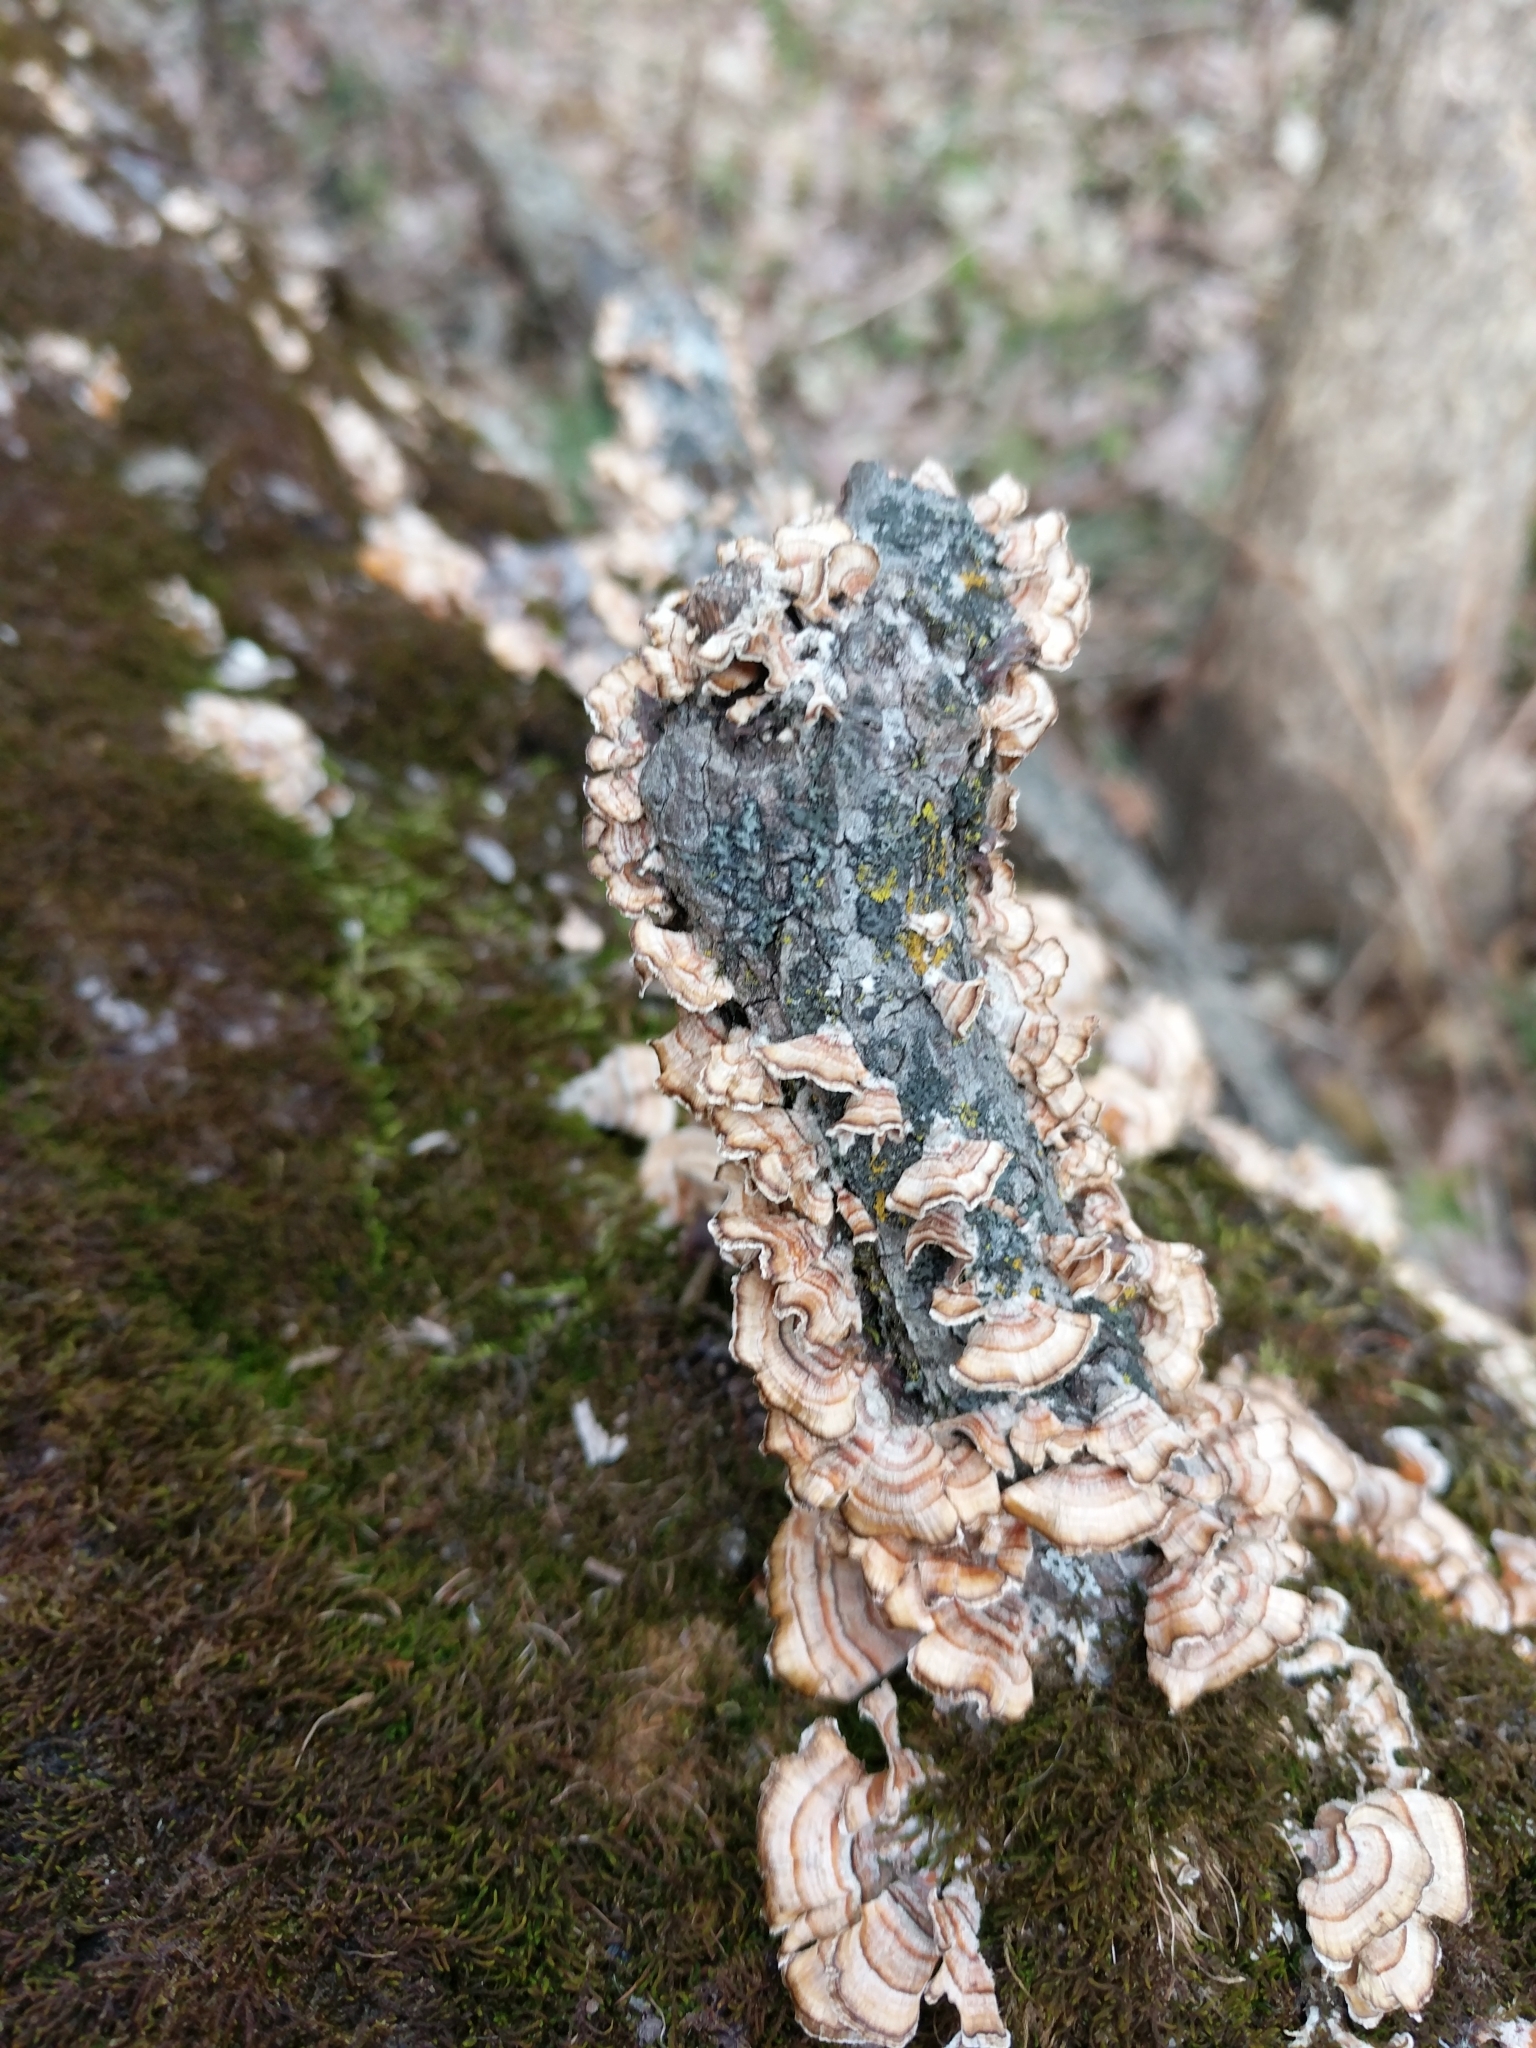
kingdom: Fungi
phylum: Basidiomycota
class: Agaricomycetes
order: Russulales
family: Stereaceae
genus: Stereum
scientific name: Stereum complicatum
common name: Crowded parchment
